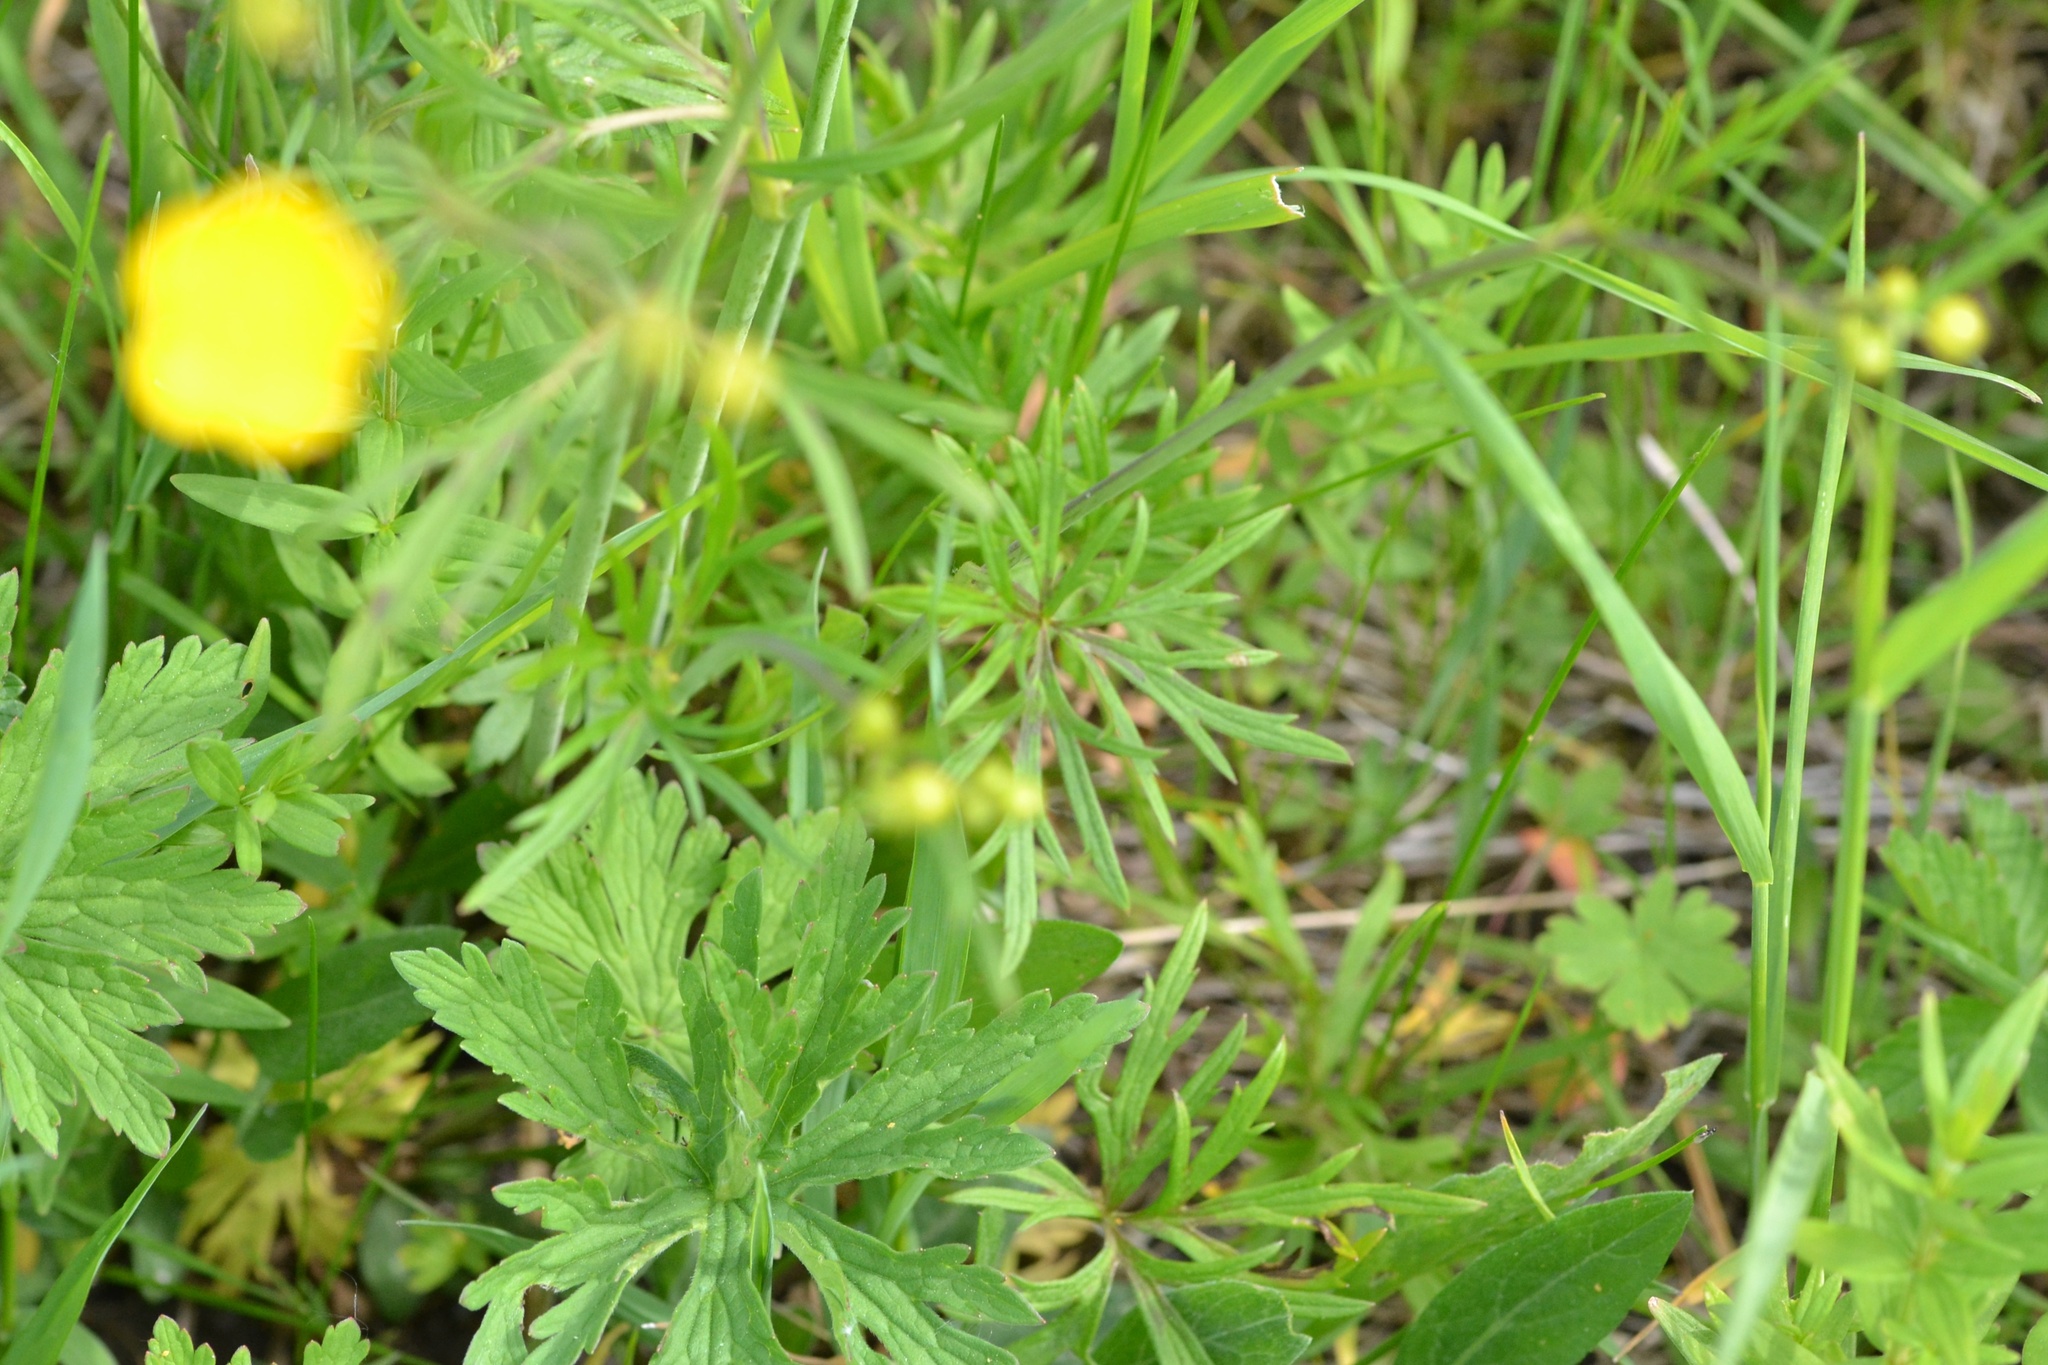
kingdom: Plantae
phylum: Tracheophyta
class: Magnoliopsida
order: Ranunculales
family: Ranunculaceae
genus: Ranunculus
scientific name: Ranunculus acris
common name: Meadow buttercup
